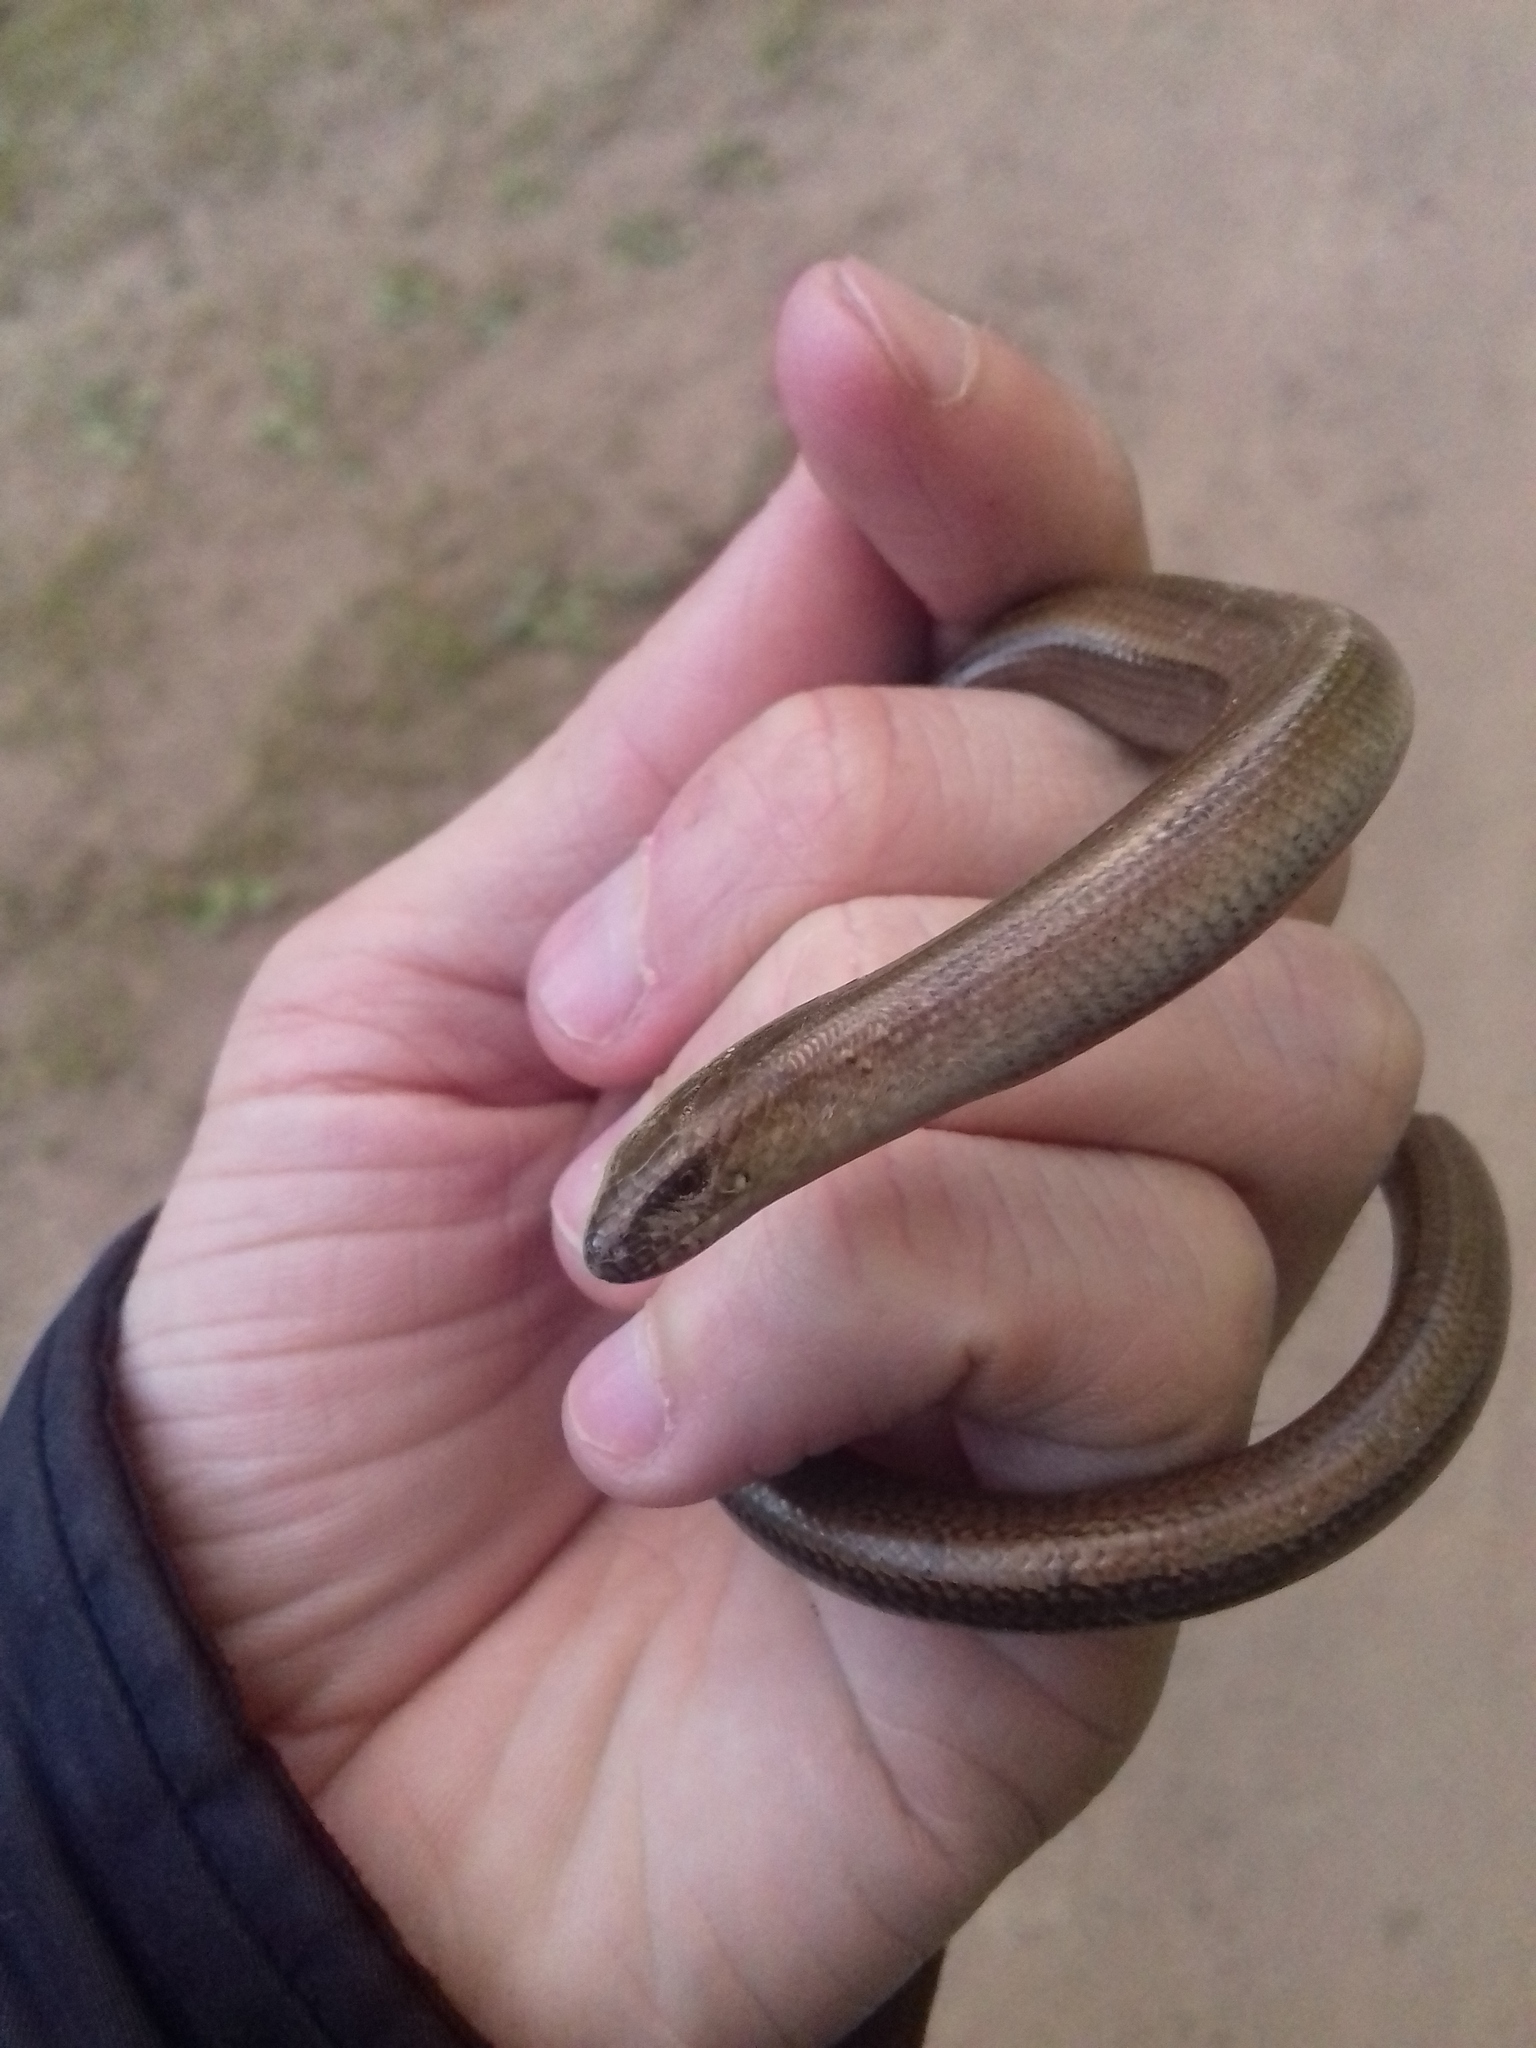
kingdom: Animalia
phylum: Chordata
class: Squamata
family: Anguidae
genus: Anguis
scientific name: Anguis colchica
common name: Slow worm
